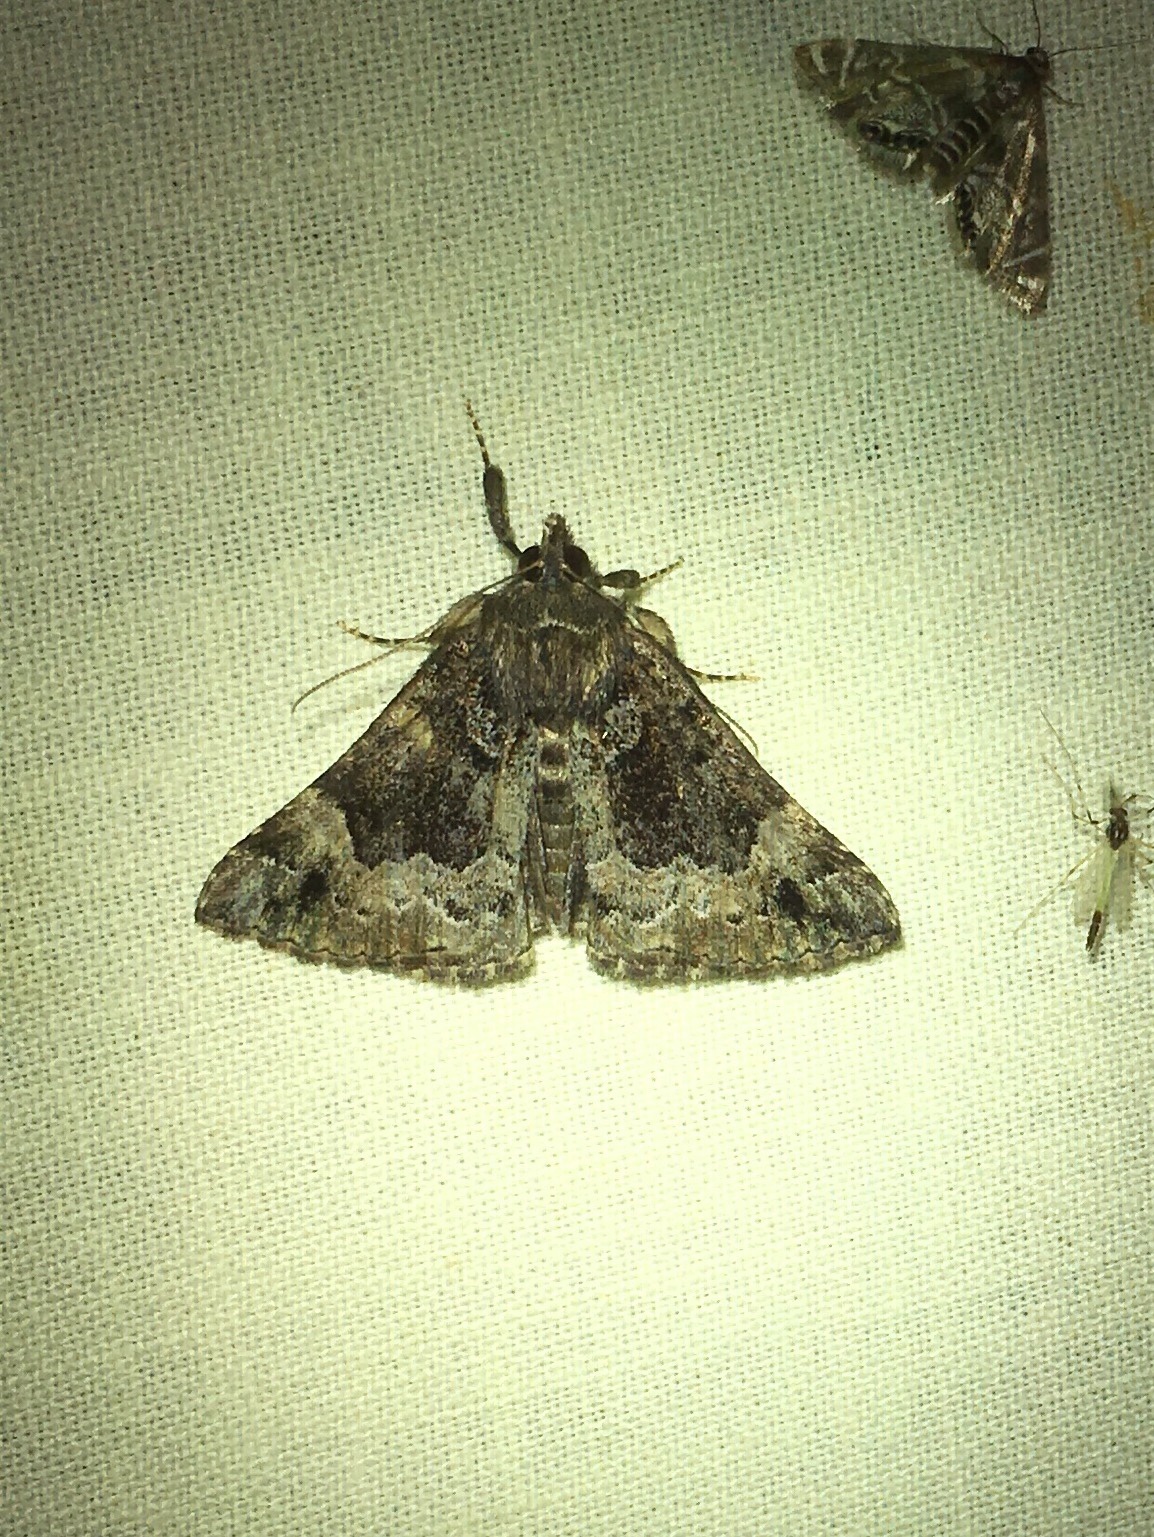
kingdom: Animalia
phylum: Arthropoda
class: Insecta
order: Lepidoptera
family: Erebidae
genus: Hypena
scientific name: Hypena palparia
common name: Mottled bomolocha moth
